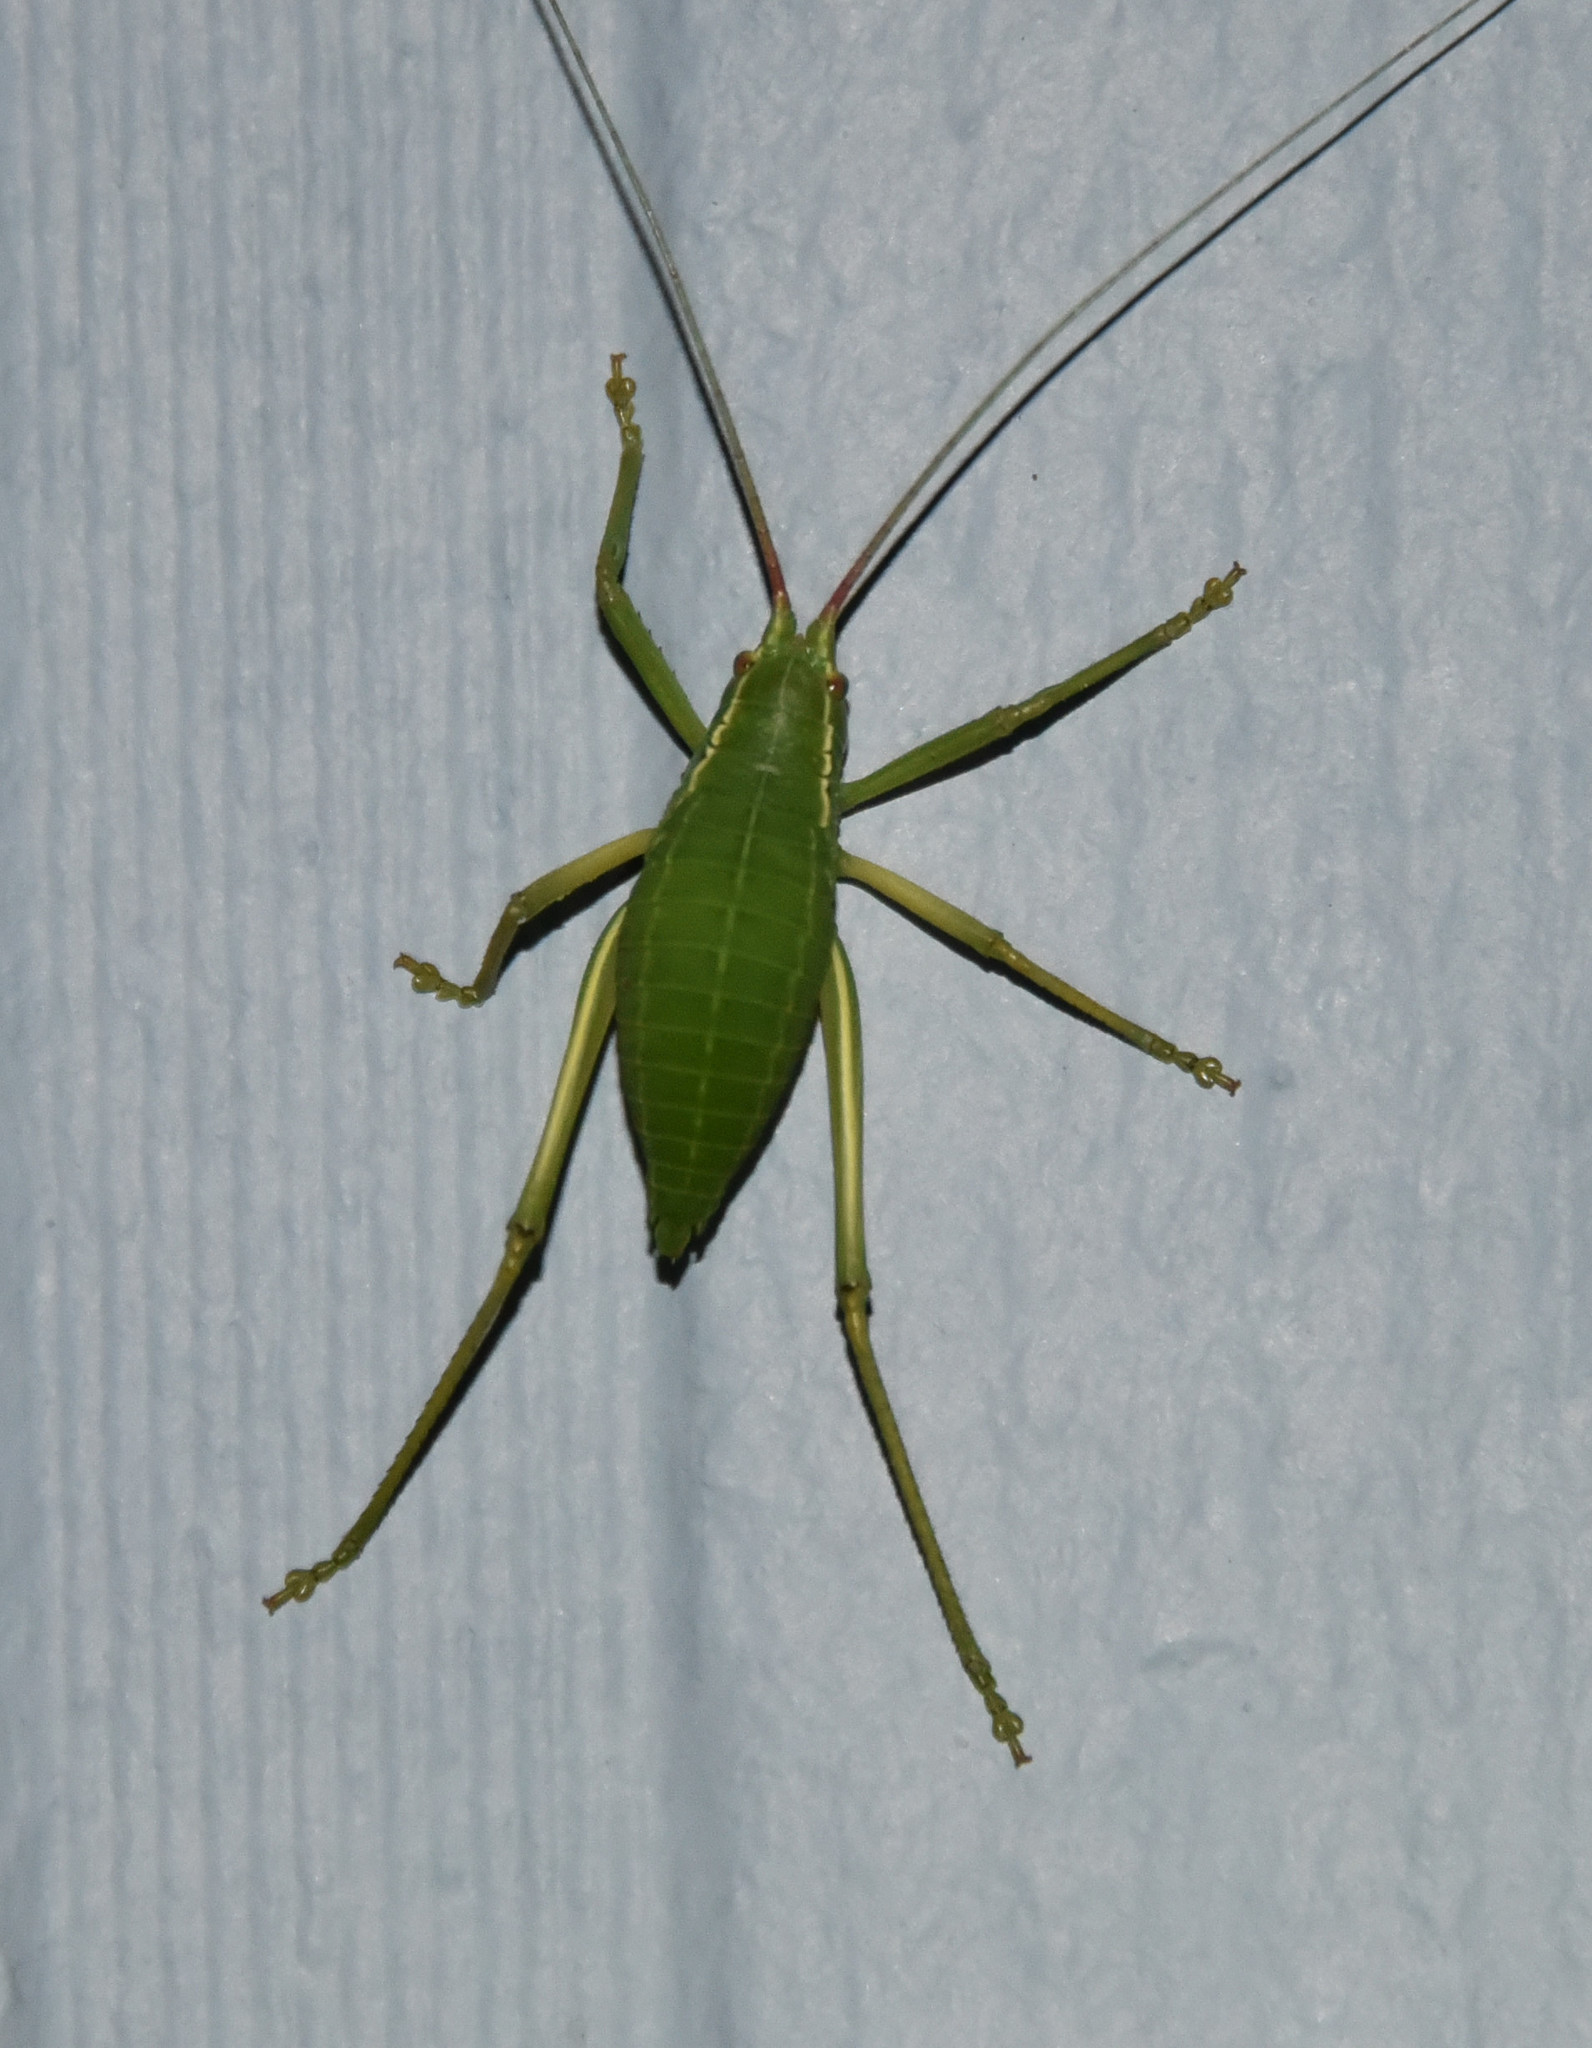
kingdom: Animalia
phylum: Arthropoda
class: Insecta
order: Orthoptera
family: Tettigoniidae
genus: Paracyrtophyllus
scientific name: Paracyrtophyllus robustus
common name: Central texas leaf katydid
